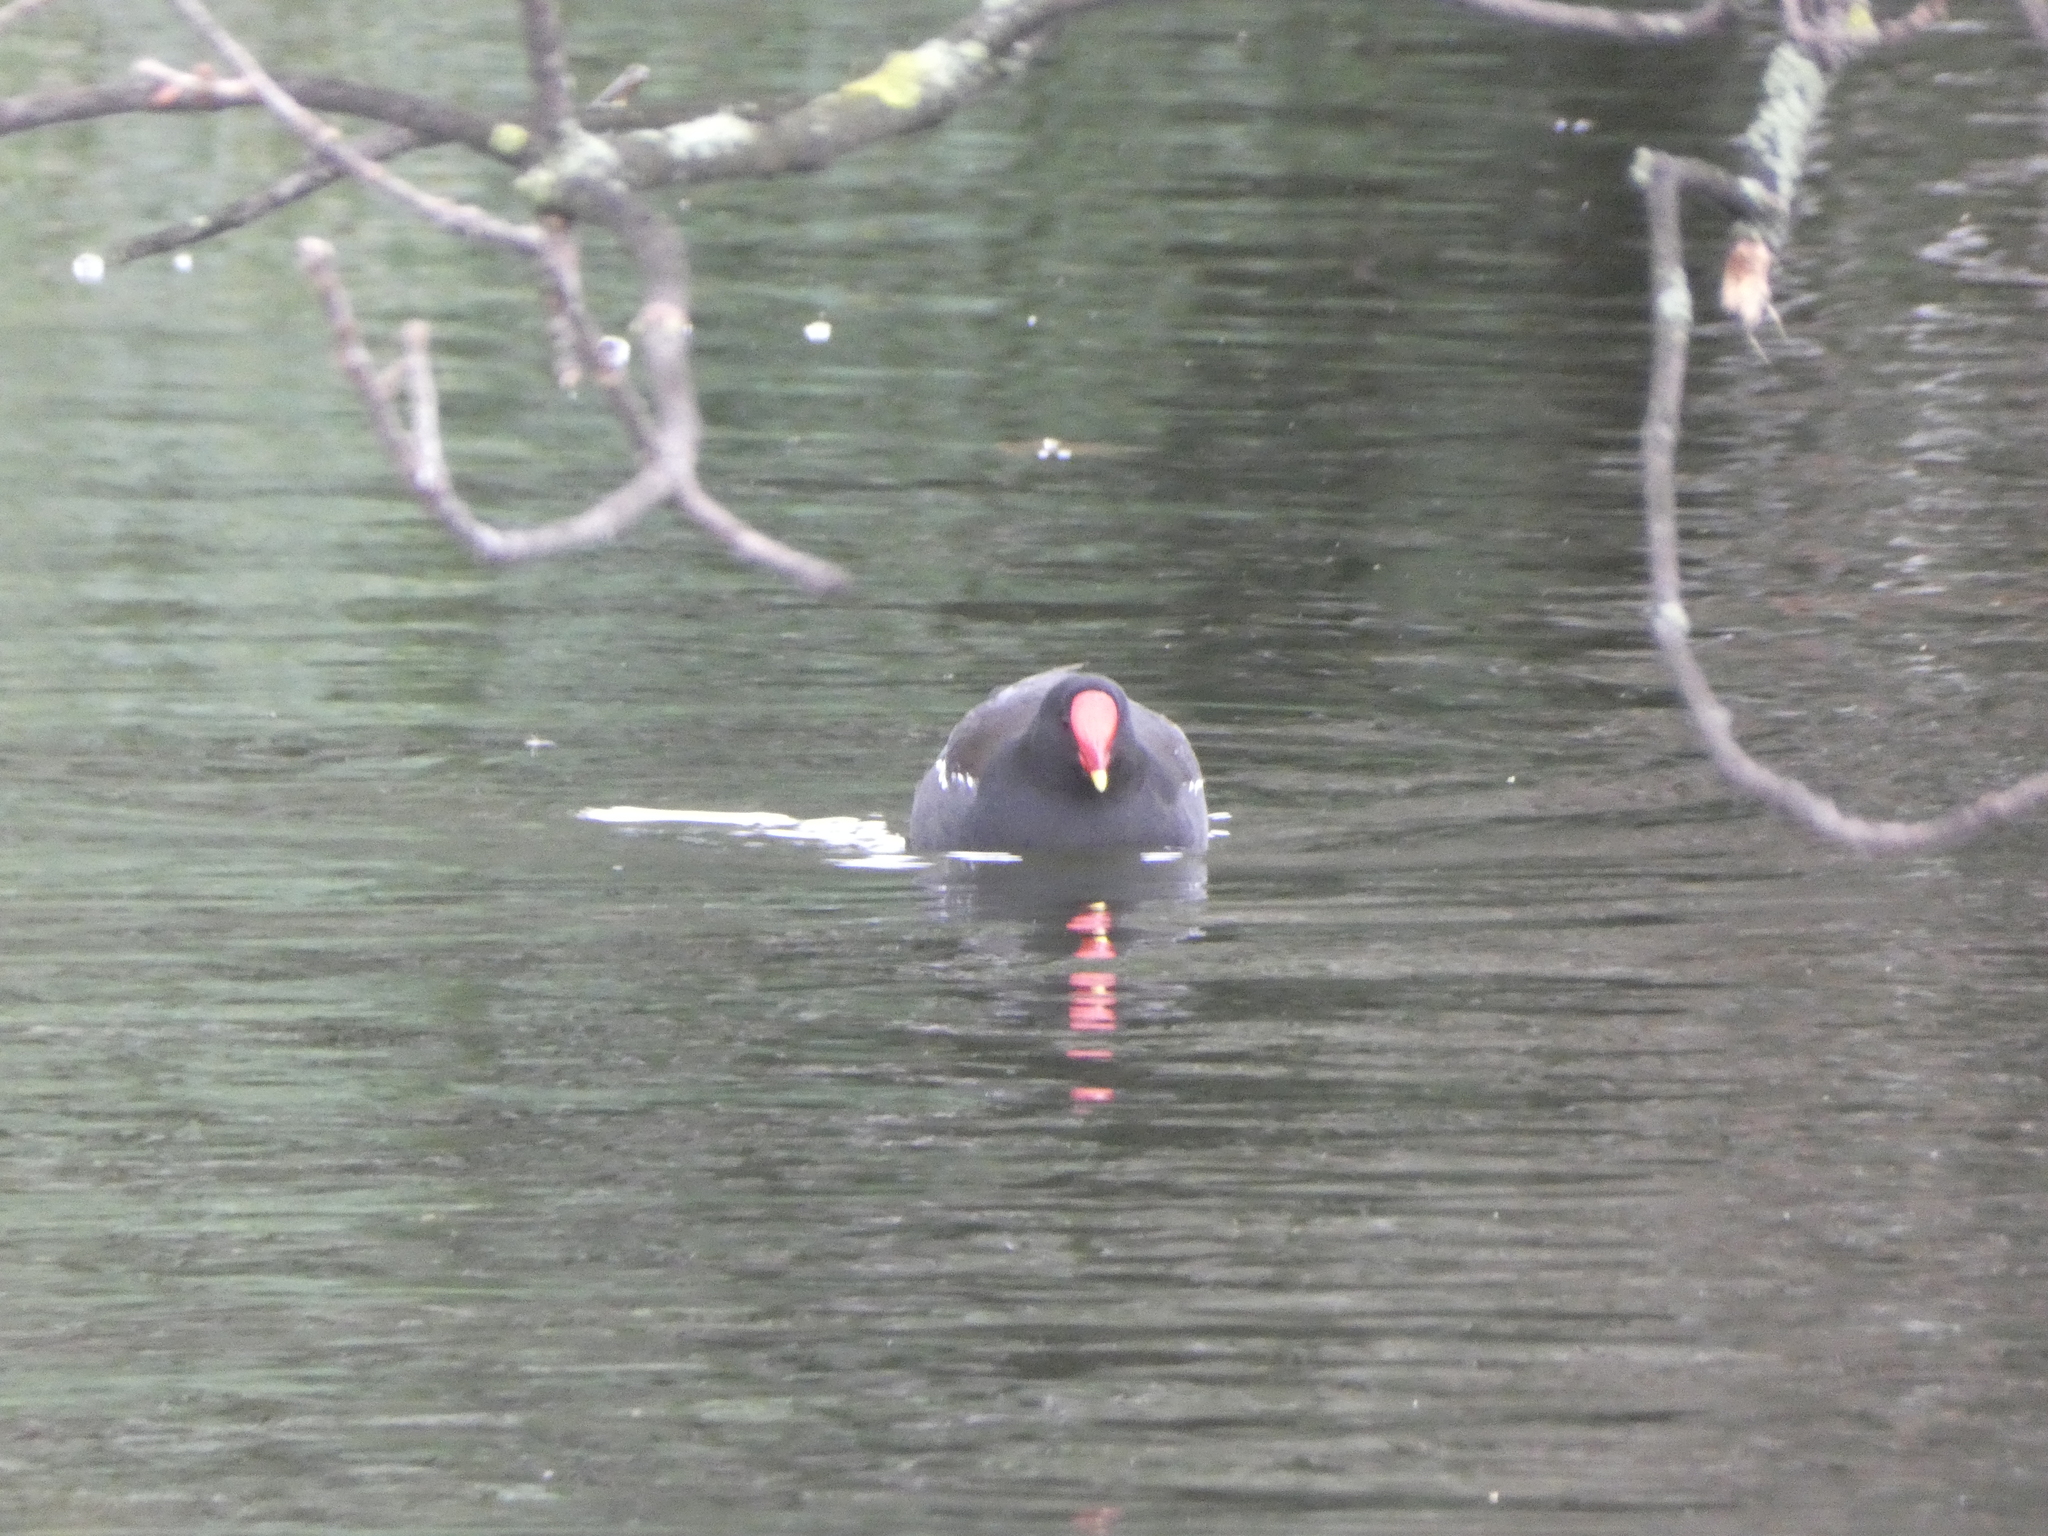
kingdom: Animalia
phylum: Chordata
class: Aves
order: Gruiformes
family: Rallidae
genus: Gallinula
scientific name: Gallinula chloropus
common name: Common moorhen
